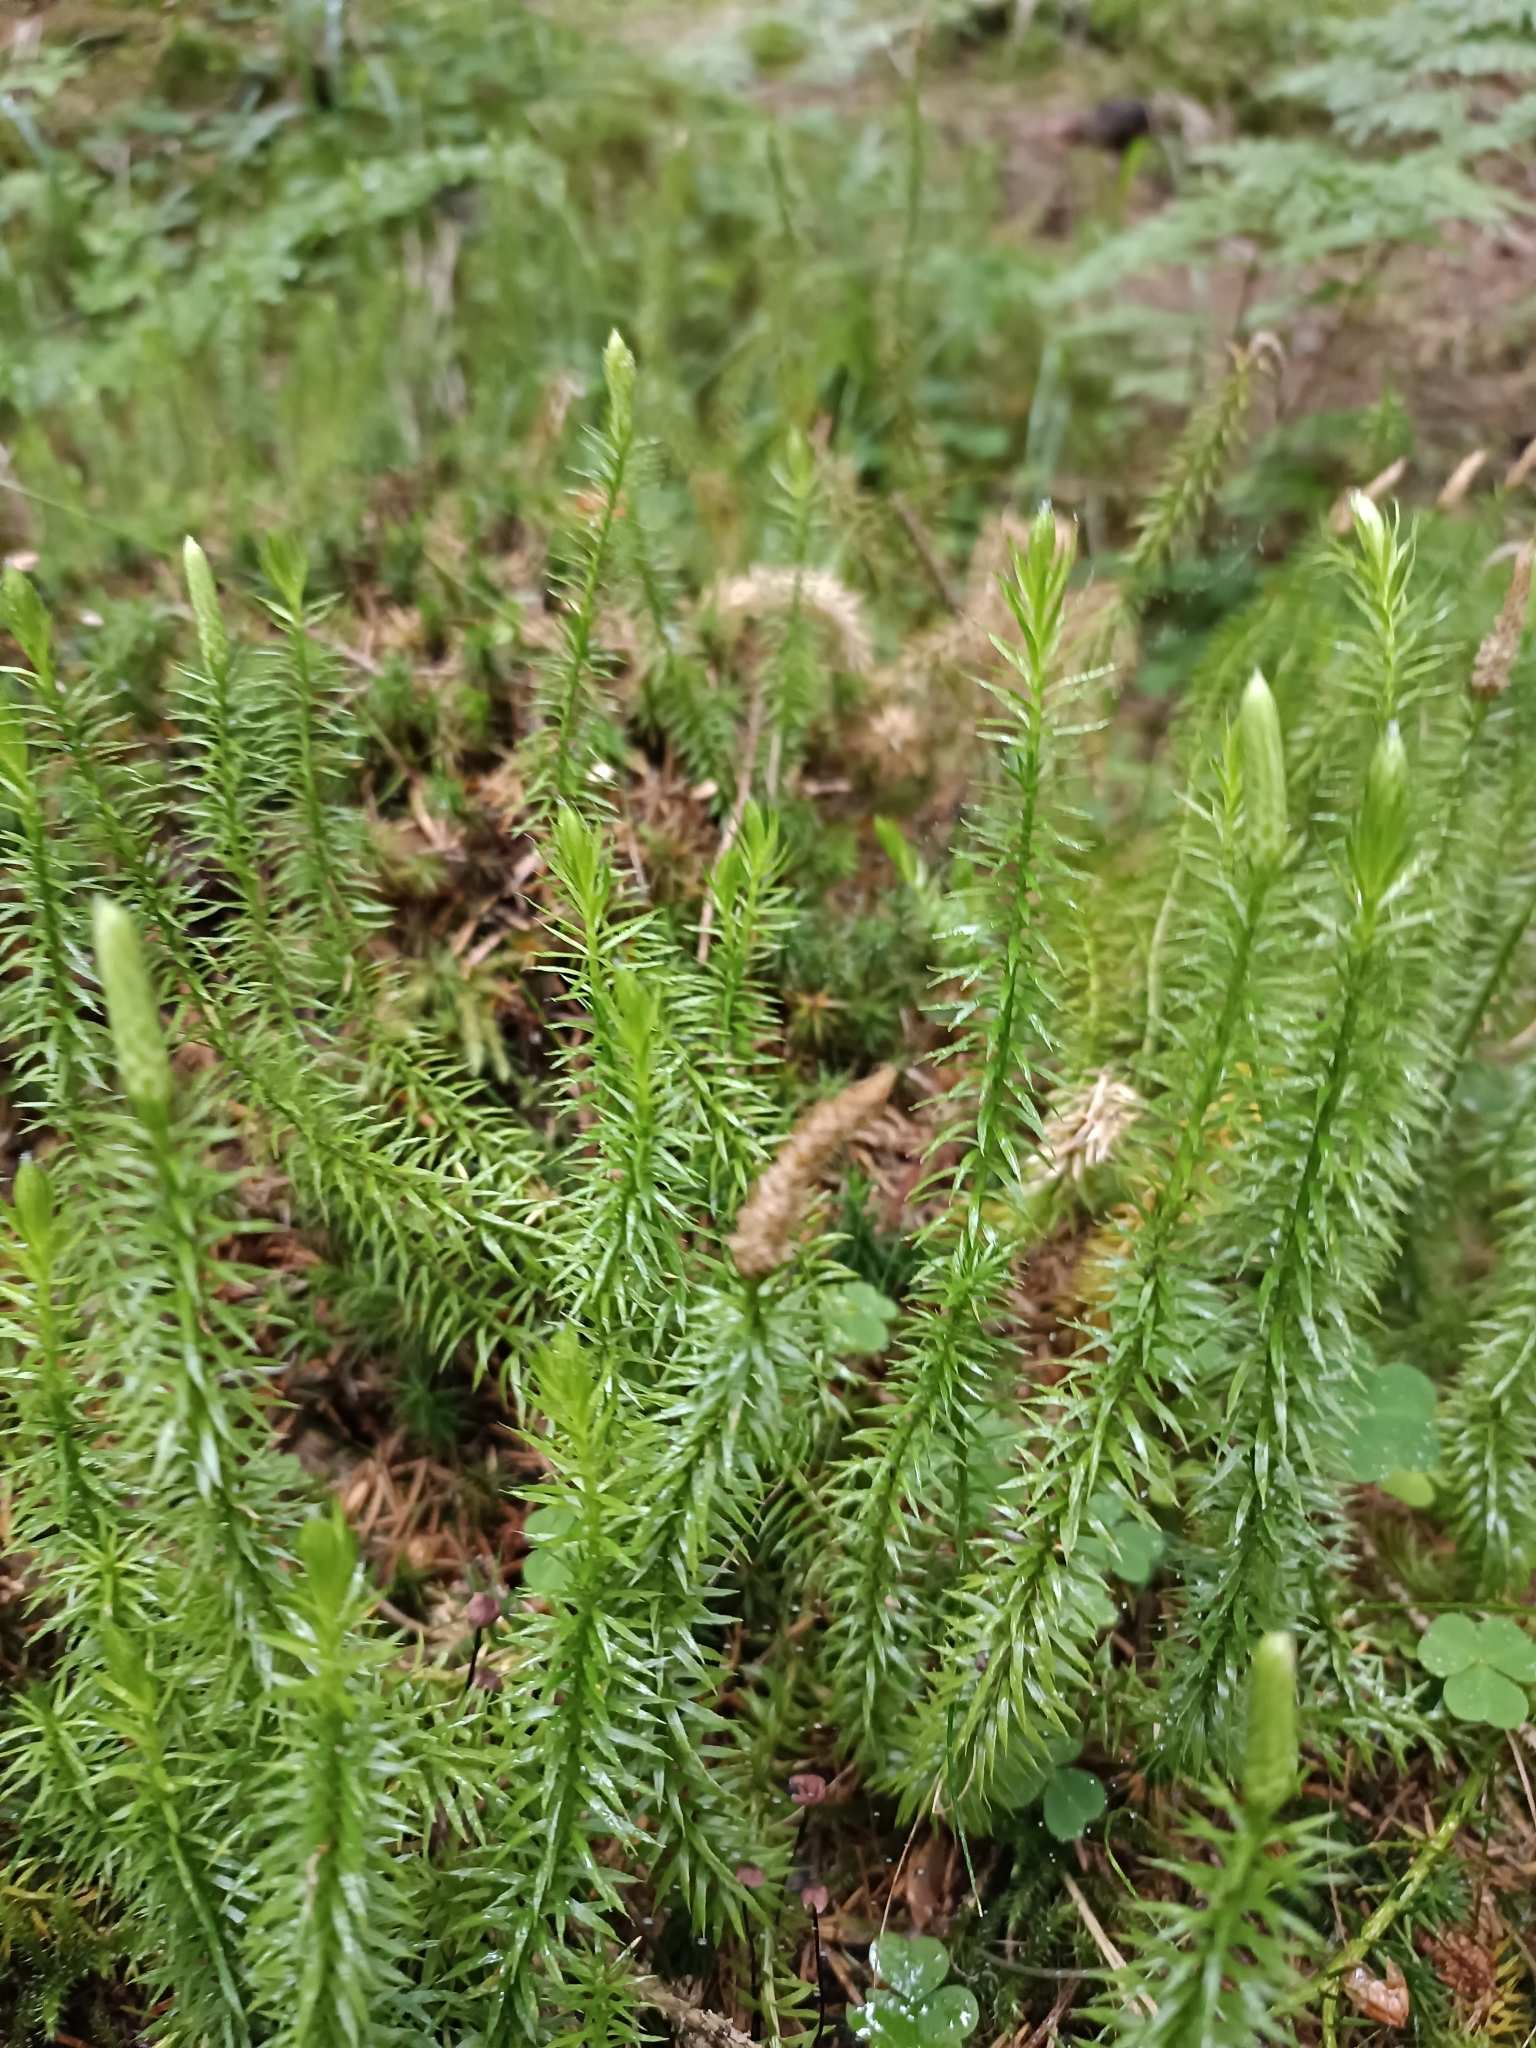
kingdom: Plantae
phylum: Tracheophyta
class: Lycopodiopsida
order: Lycopodiales
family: Lycopodiaceae
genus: Spinulum
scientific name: Spinulum annotinum
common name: Interrupted club-moss
